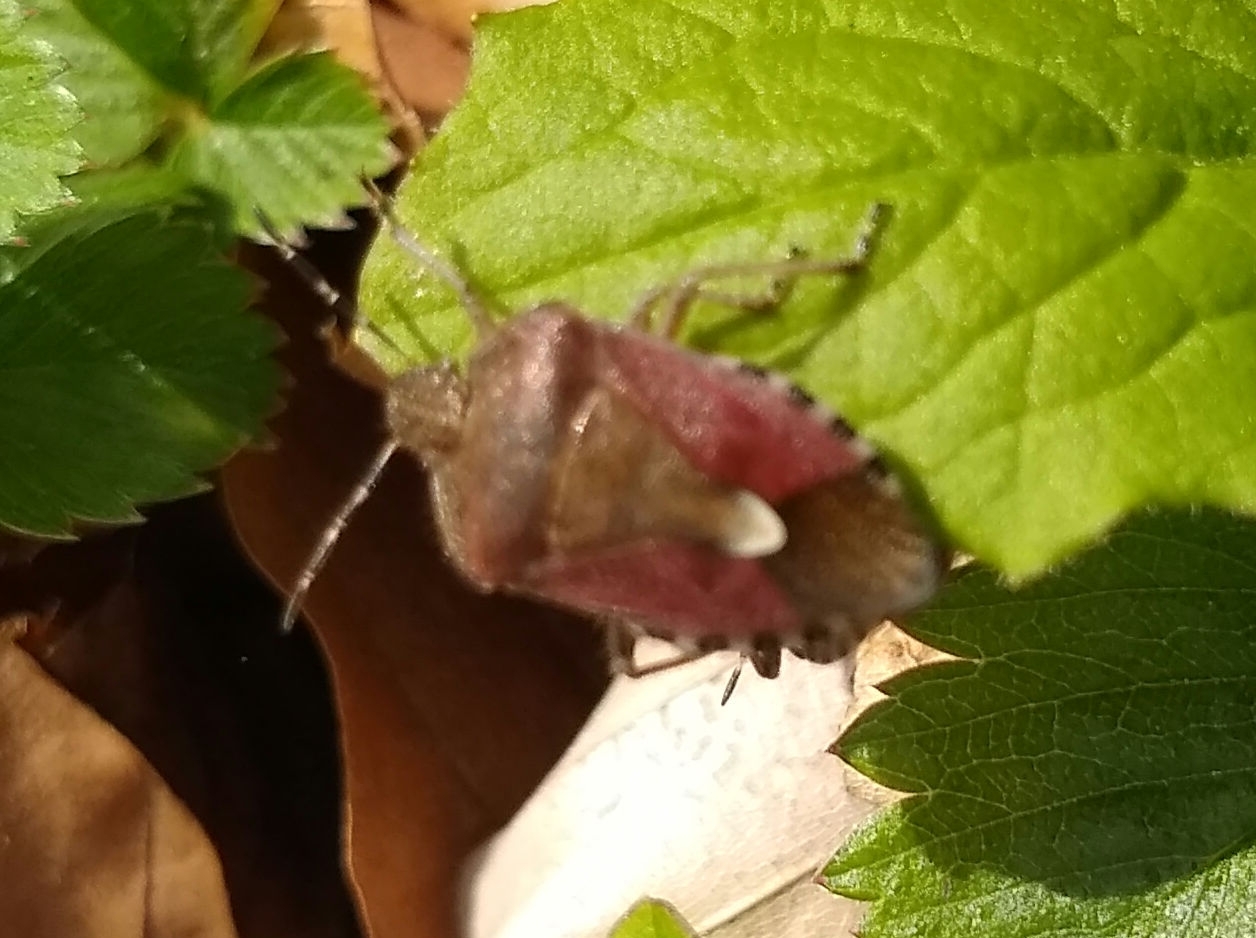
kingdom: Animalia
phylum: Arthropoda
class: Insecta
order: Hemiptera
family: Pentatomidae
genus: Dolycoris
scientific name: Dolycoris baccarum
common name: Sloe bug
